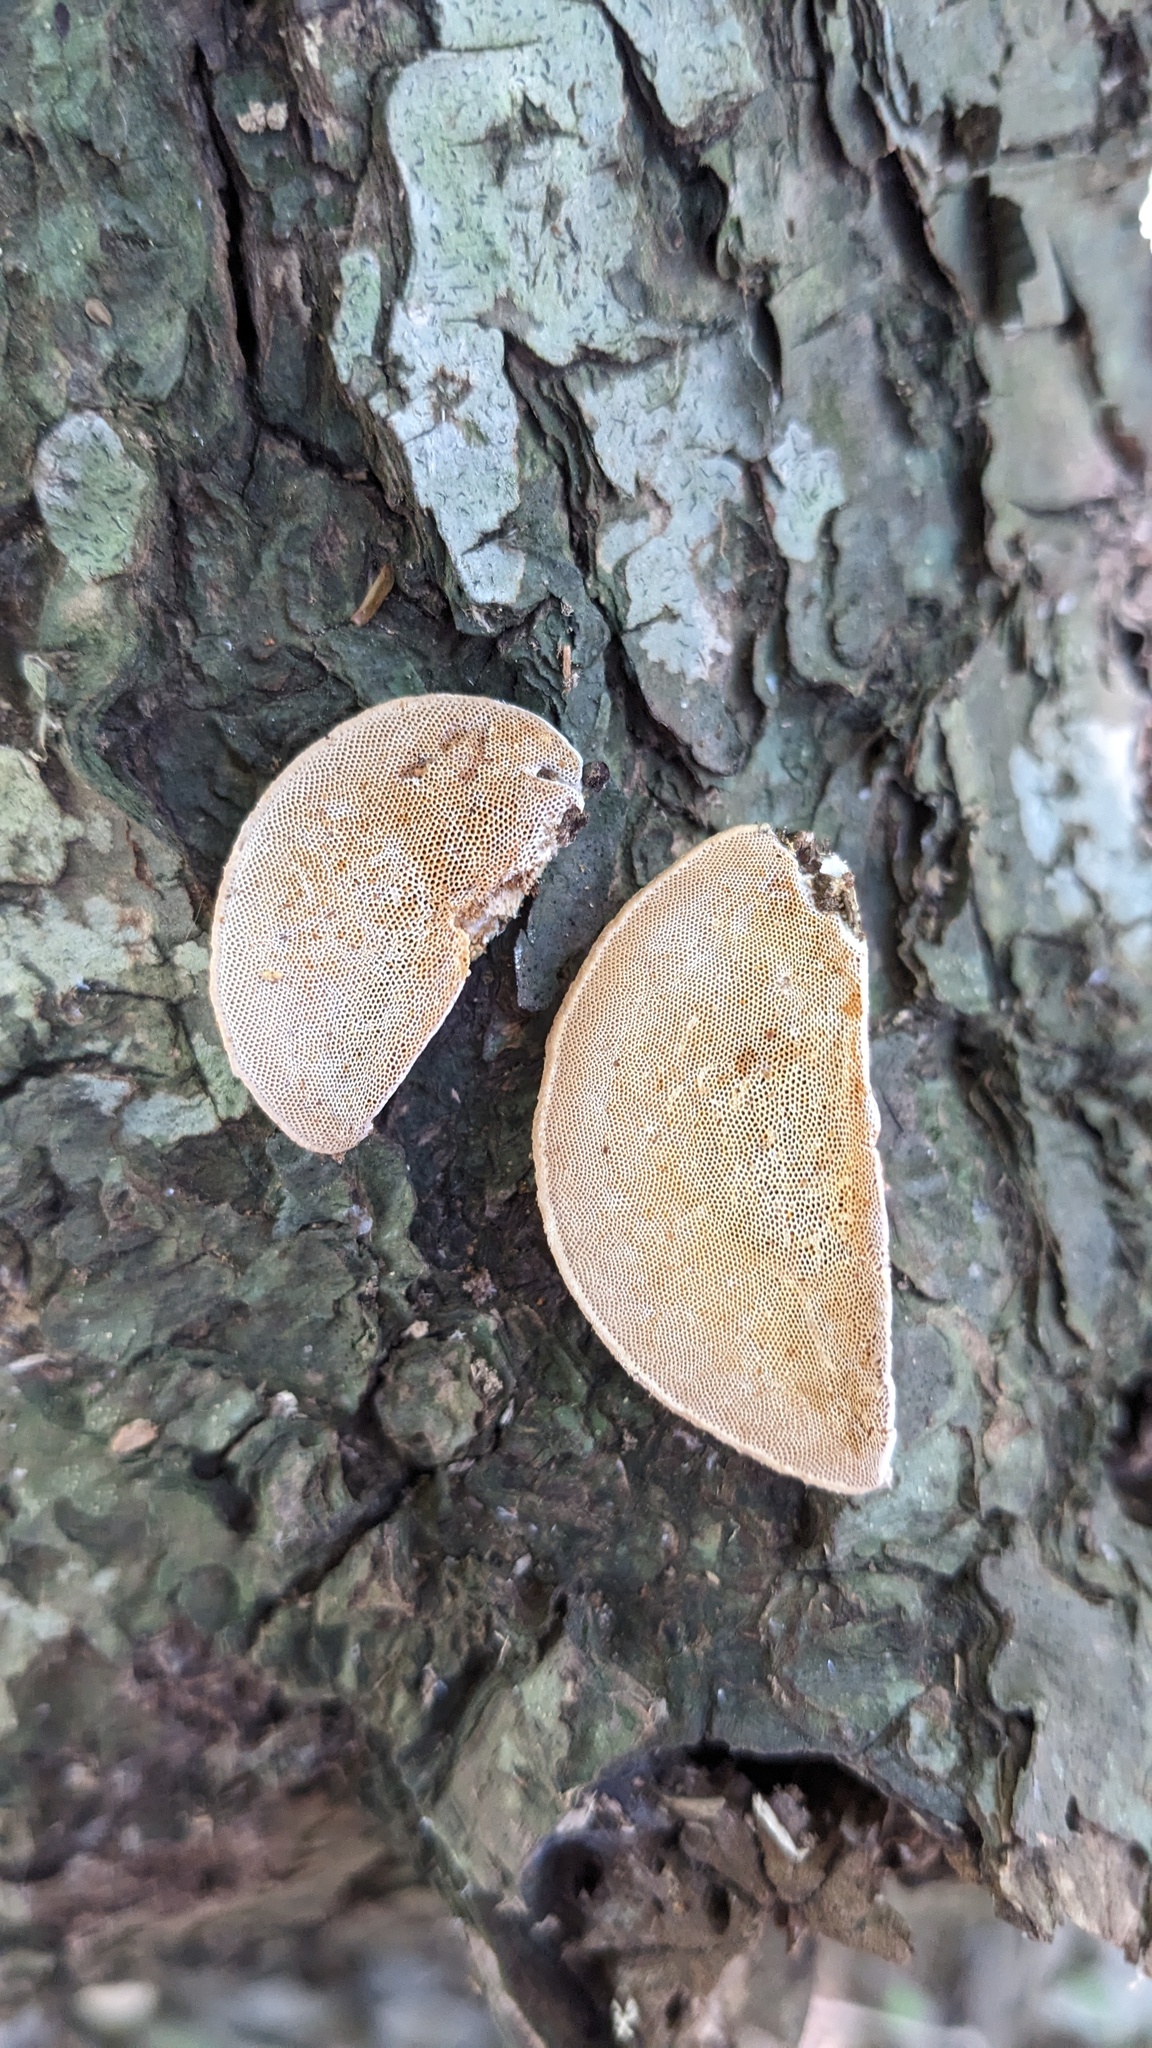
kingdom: Fungi
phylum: Basidiomycota
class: Agaricomycetes
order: Polyporales
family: Polyporaceae
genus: Truncospora
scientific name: Truncospora ochroleuca
